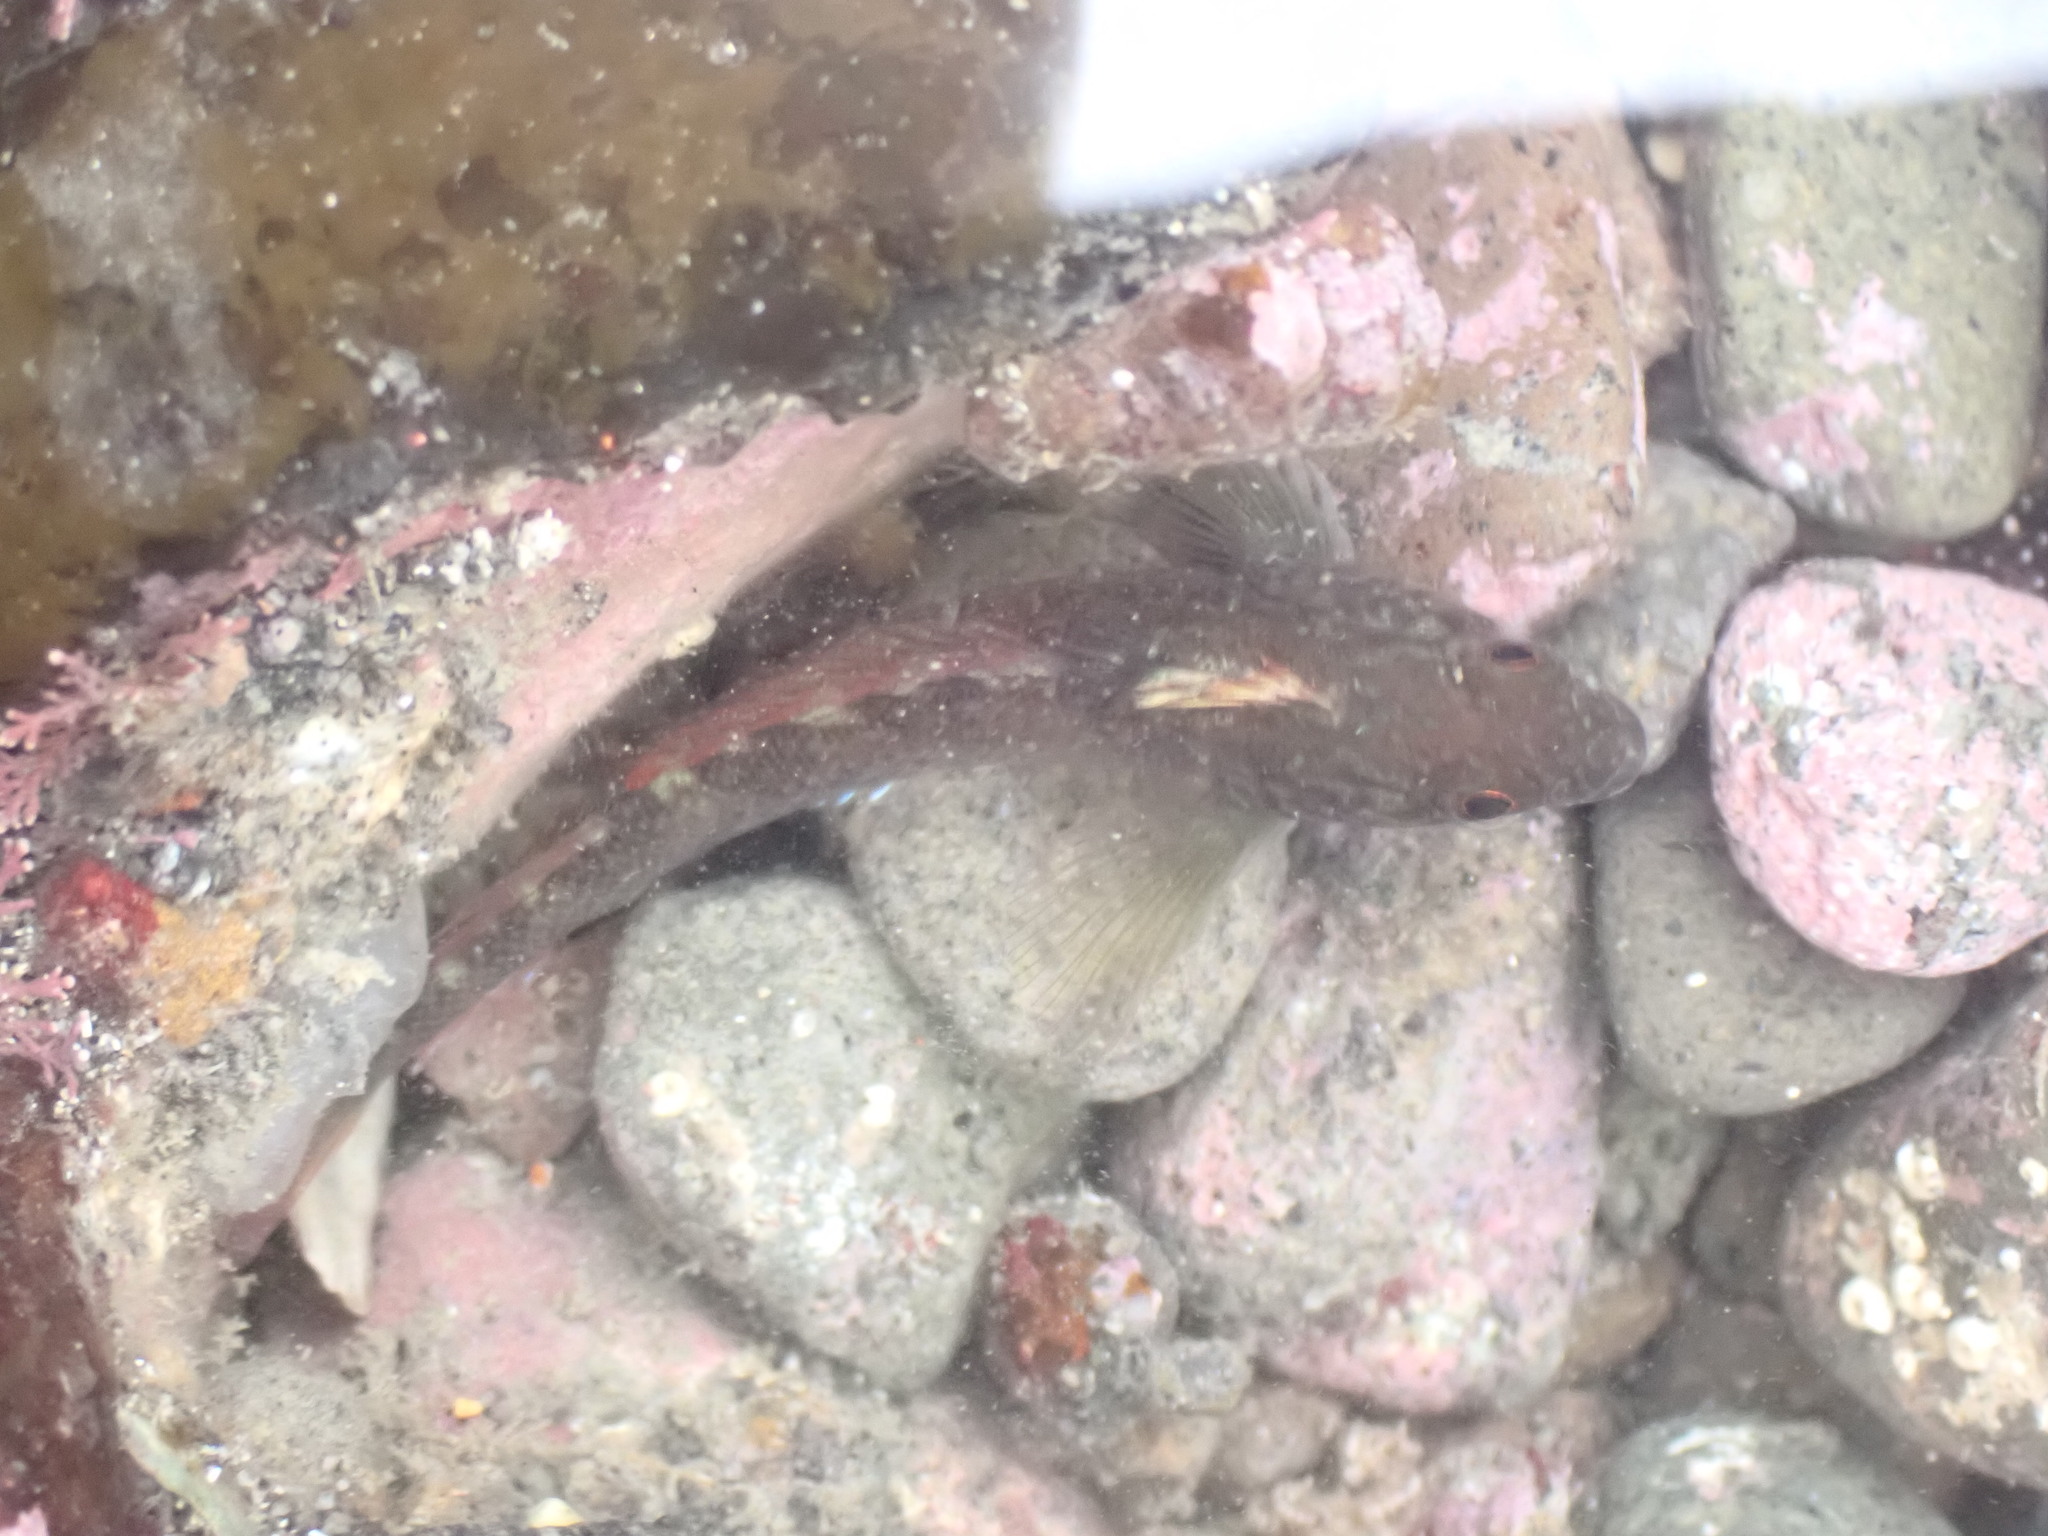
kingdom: Animalia
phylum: Chordata
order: Perciformes
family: Tripterygiidae
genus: Forsterygion
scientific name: Forsterygion lapillum
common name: Common triplefin
